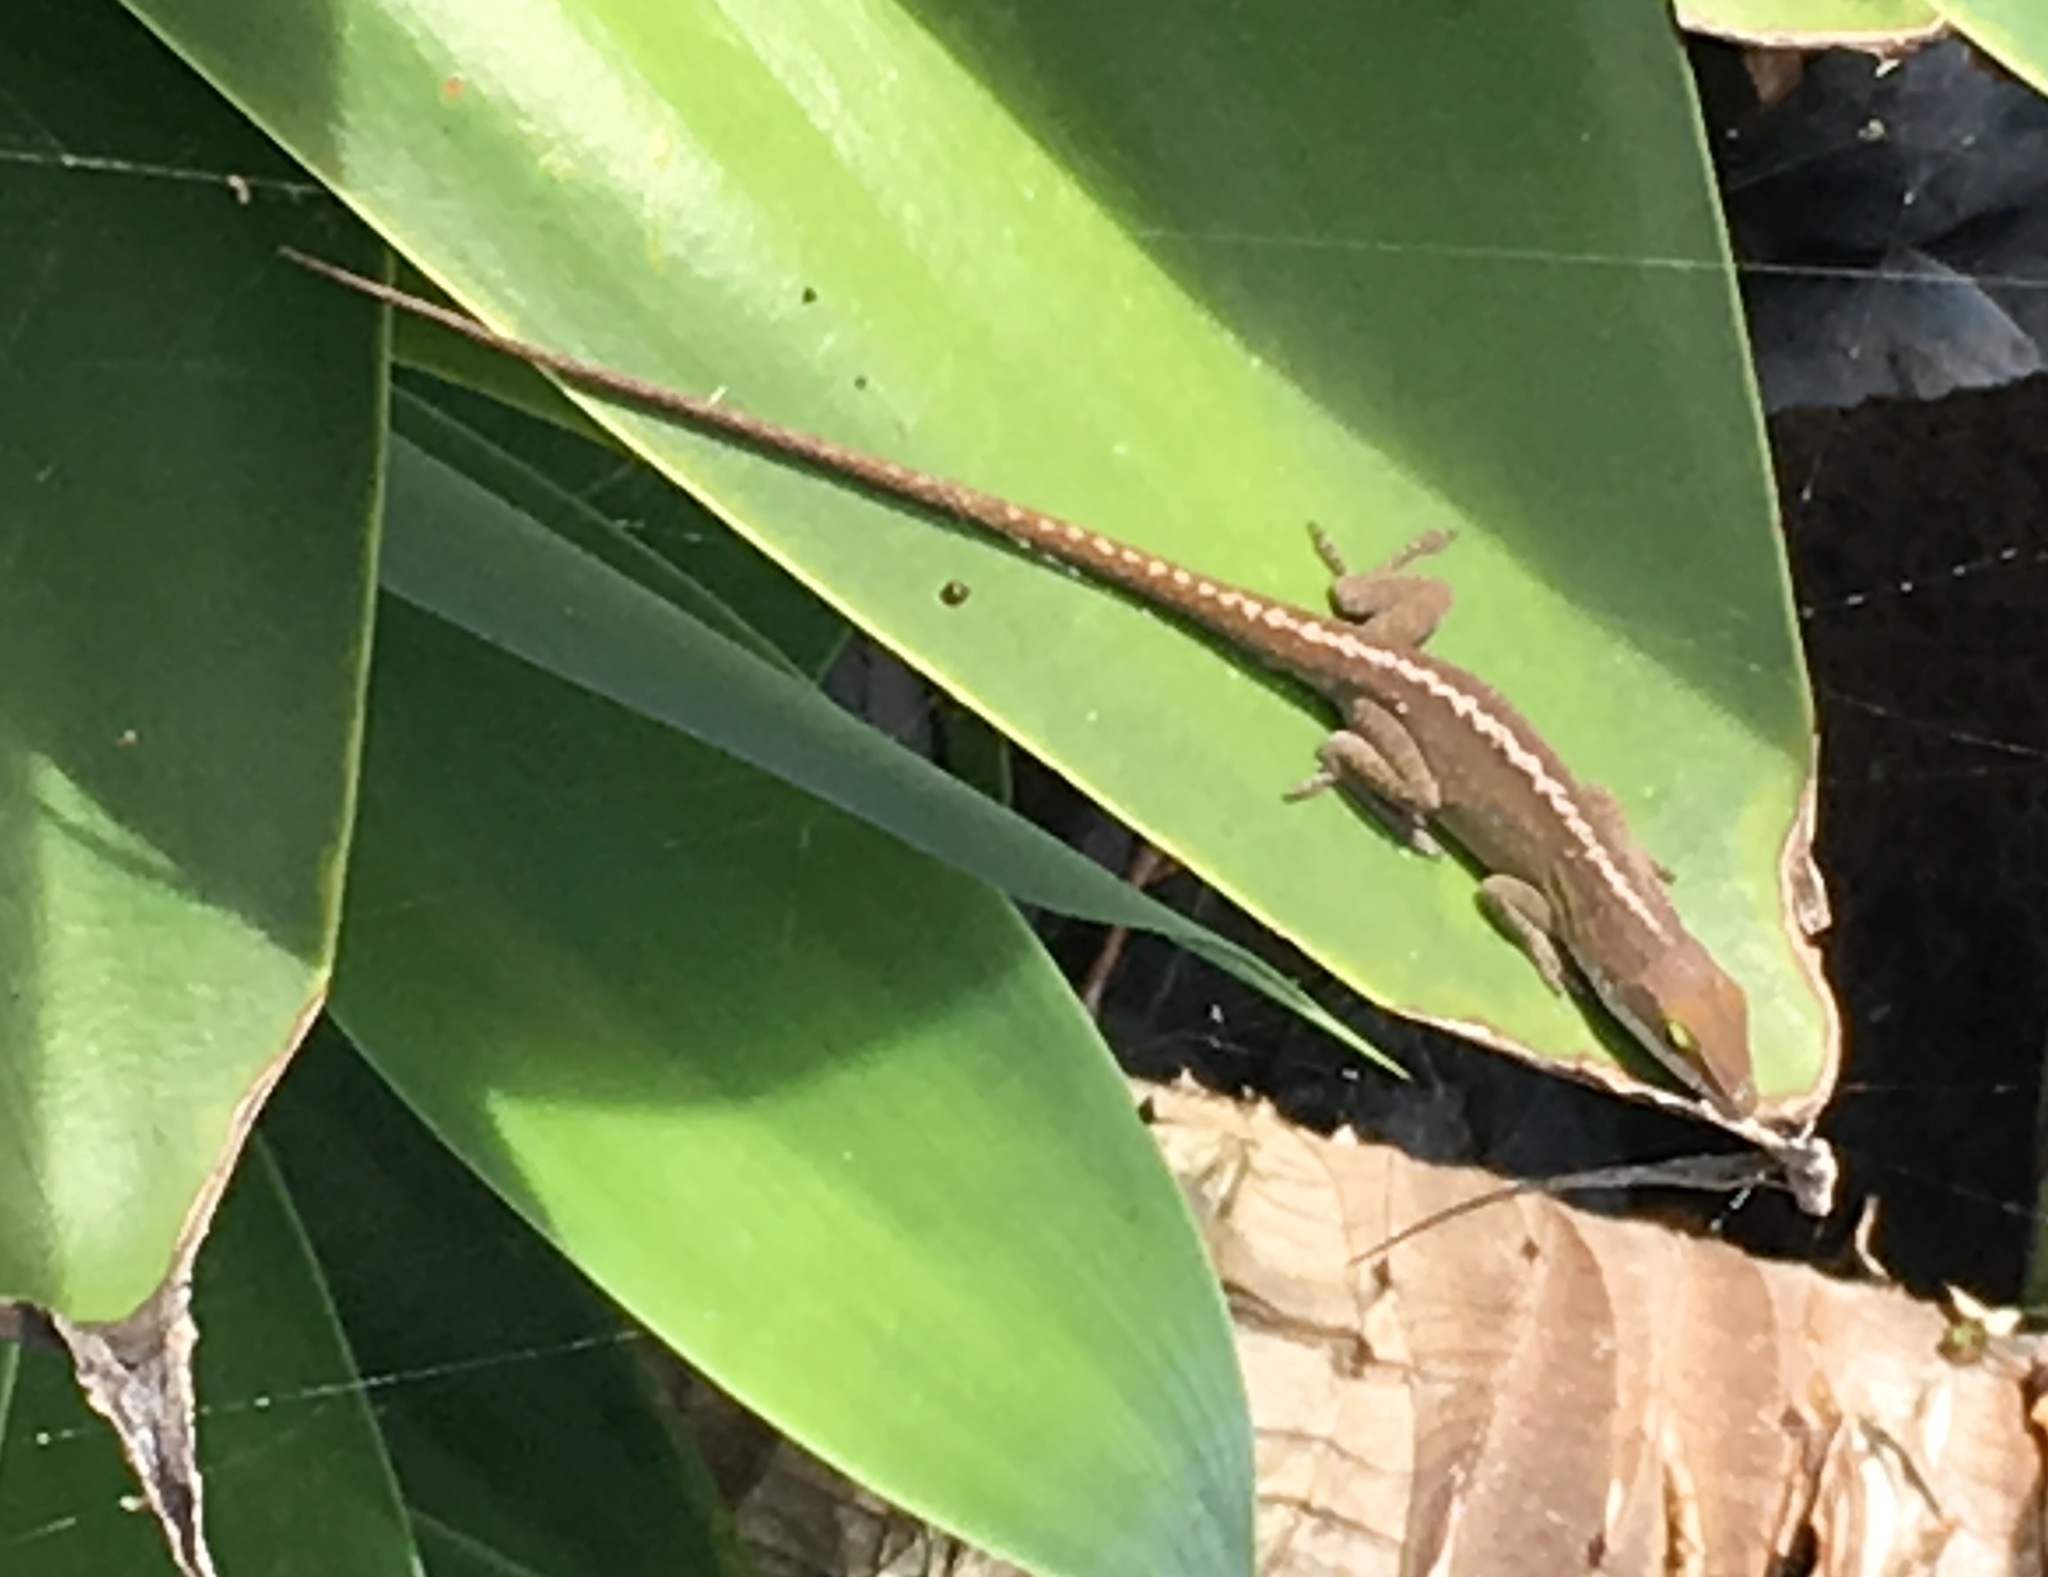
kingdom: Animalia
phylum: Chordata
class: Squamata
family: Dactyloidae
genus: Anolis
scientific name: Anolis carolinensis
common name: Green anole
